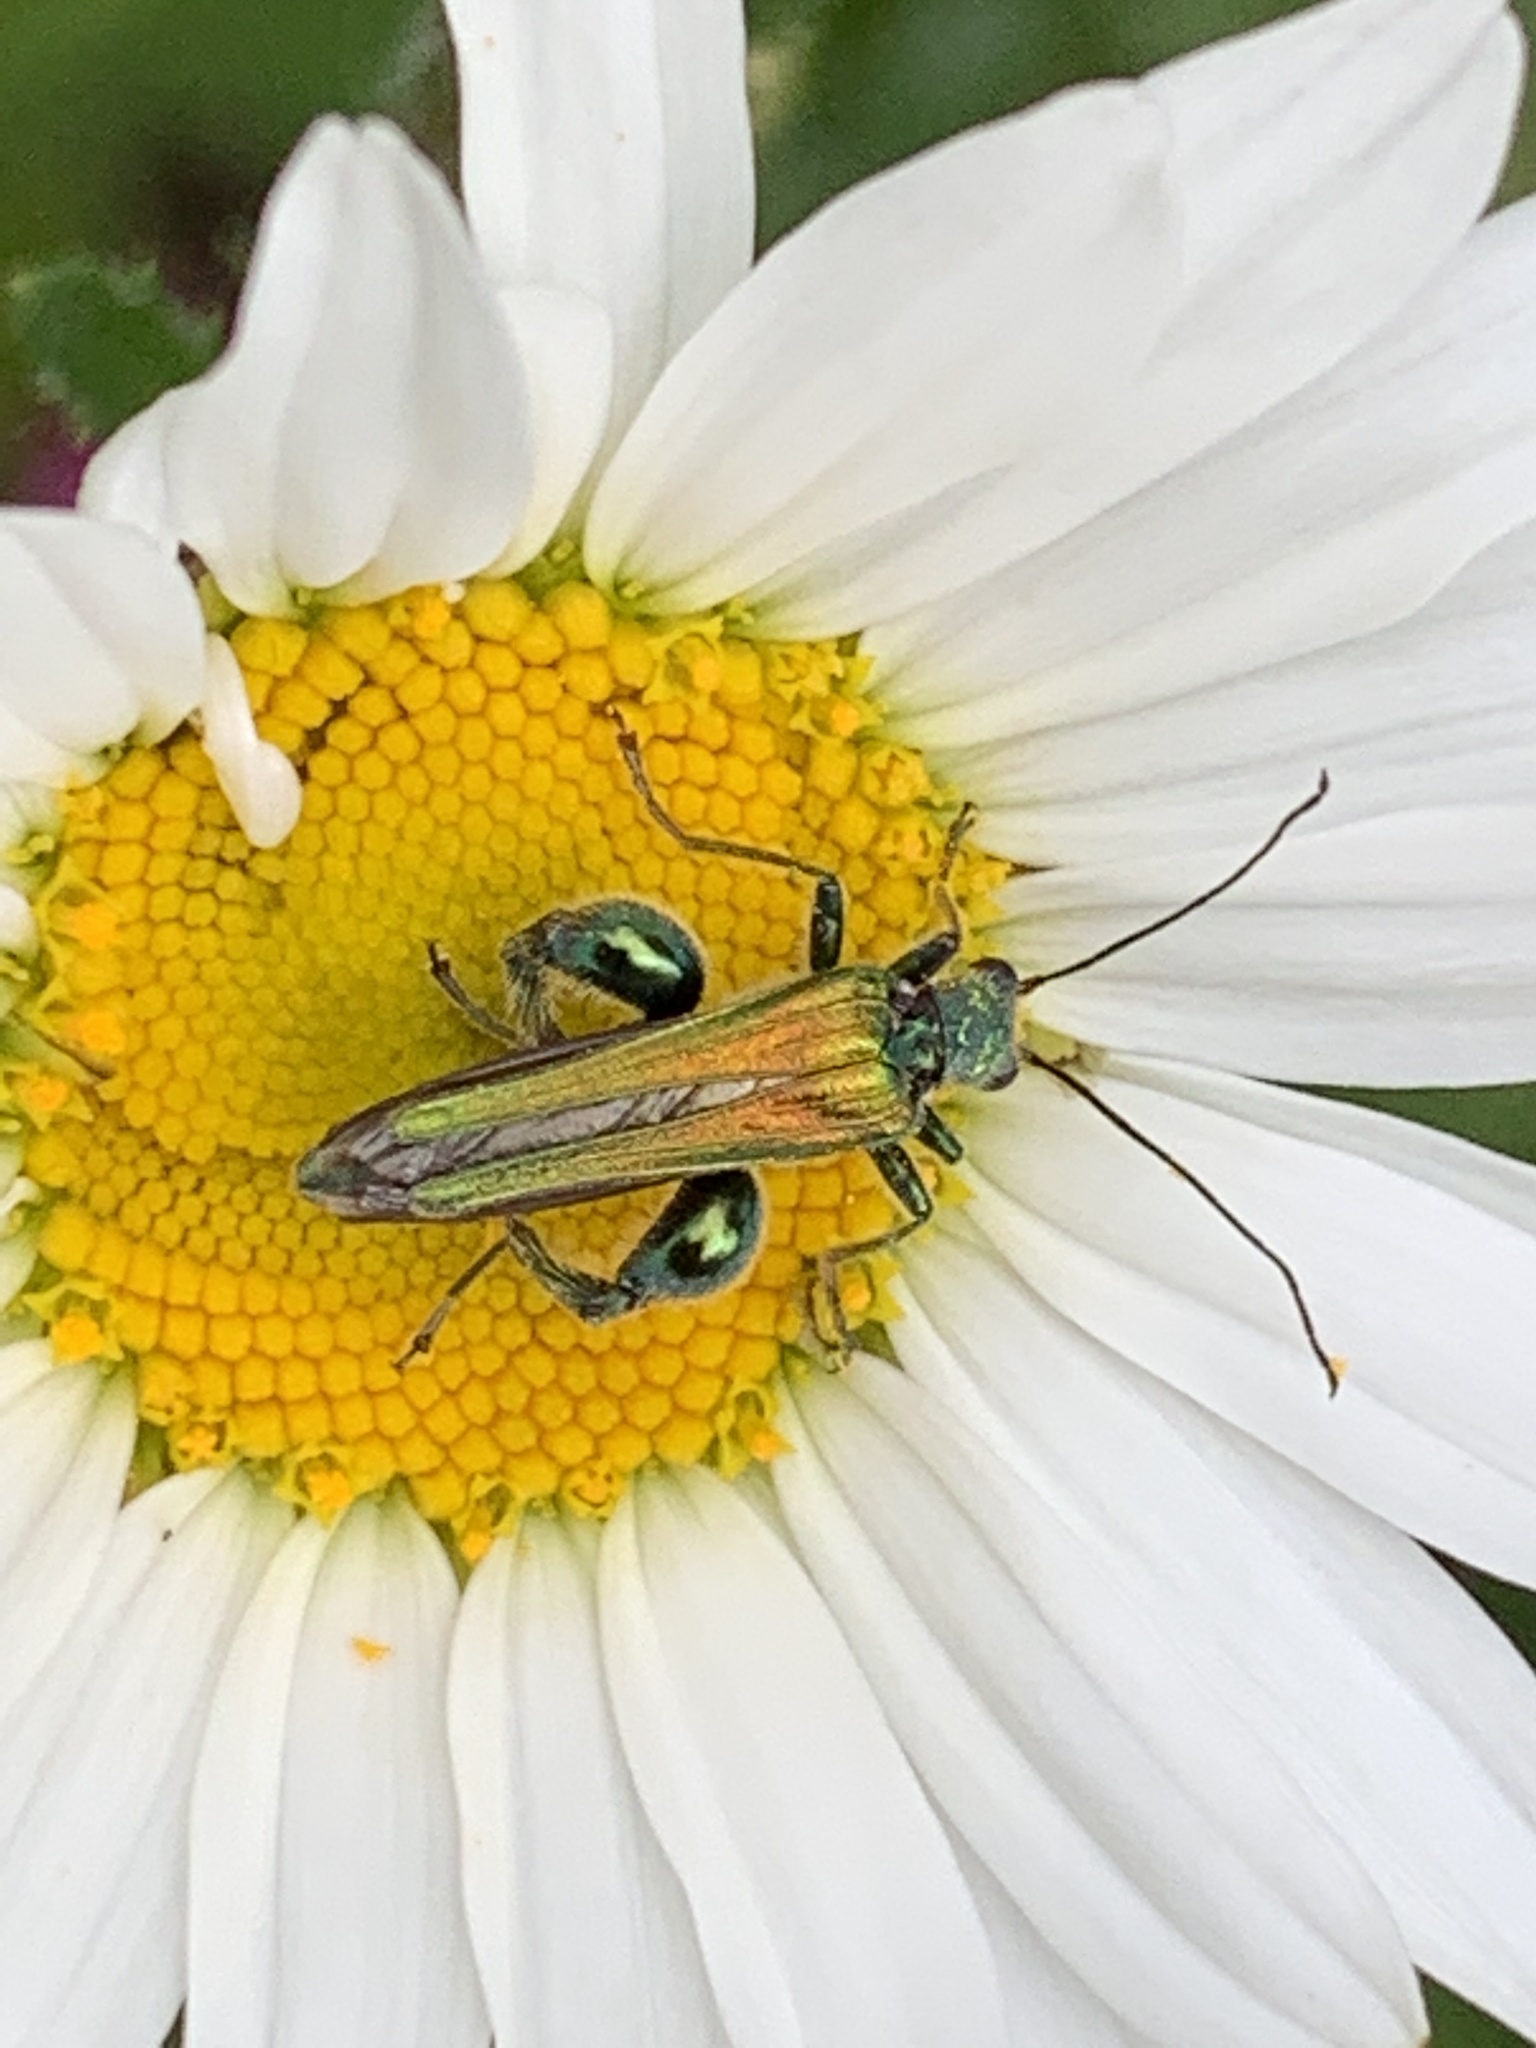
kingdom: Animalia
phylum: Arthropoda
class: Insecta
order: Coleoptera
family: Oedemeridae
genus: Oedemera
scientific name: Oedemera nobilis
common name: Swollen-thighed beetle
